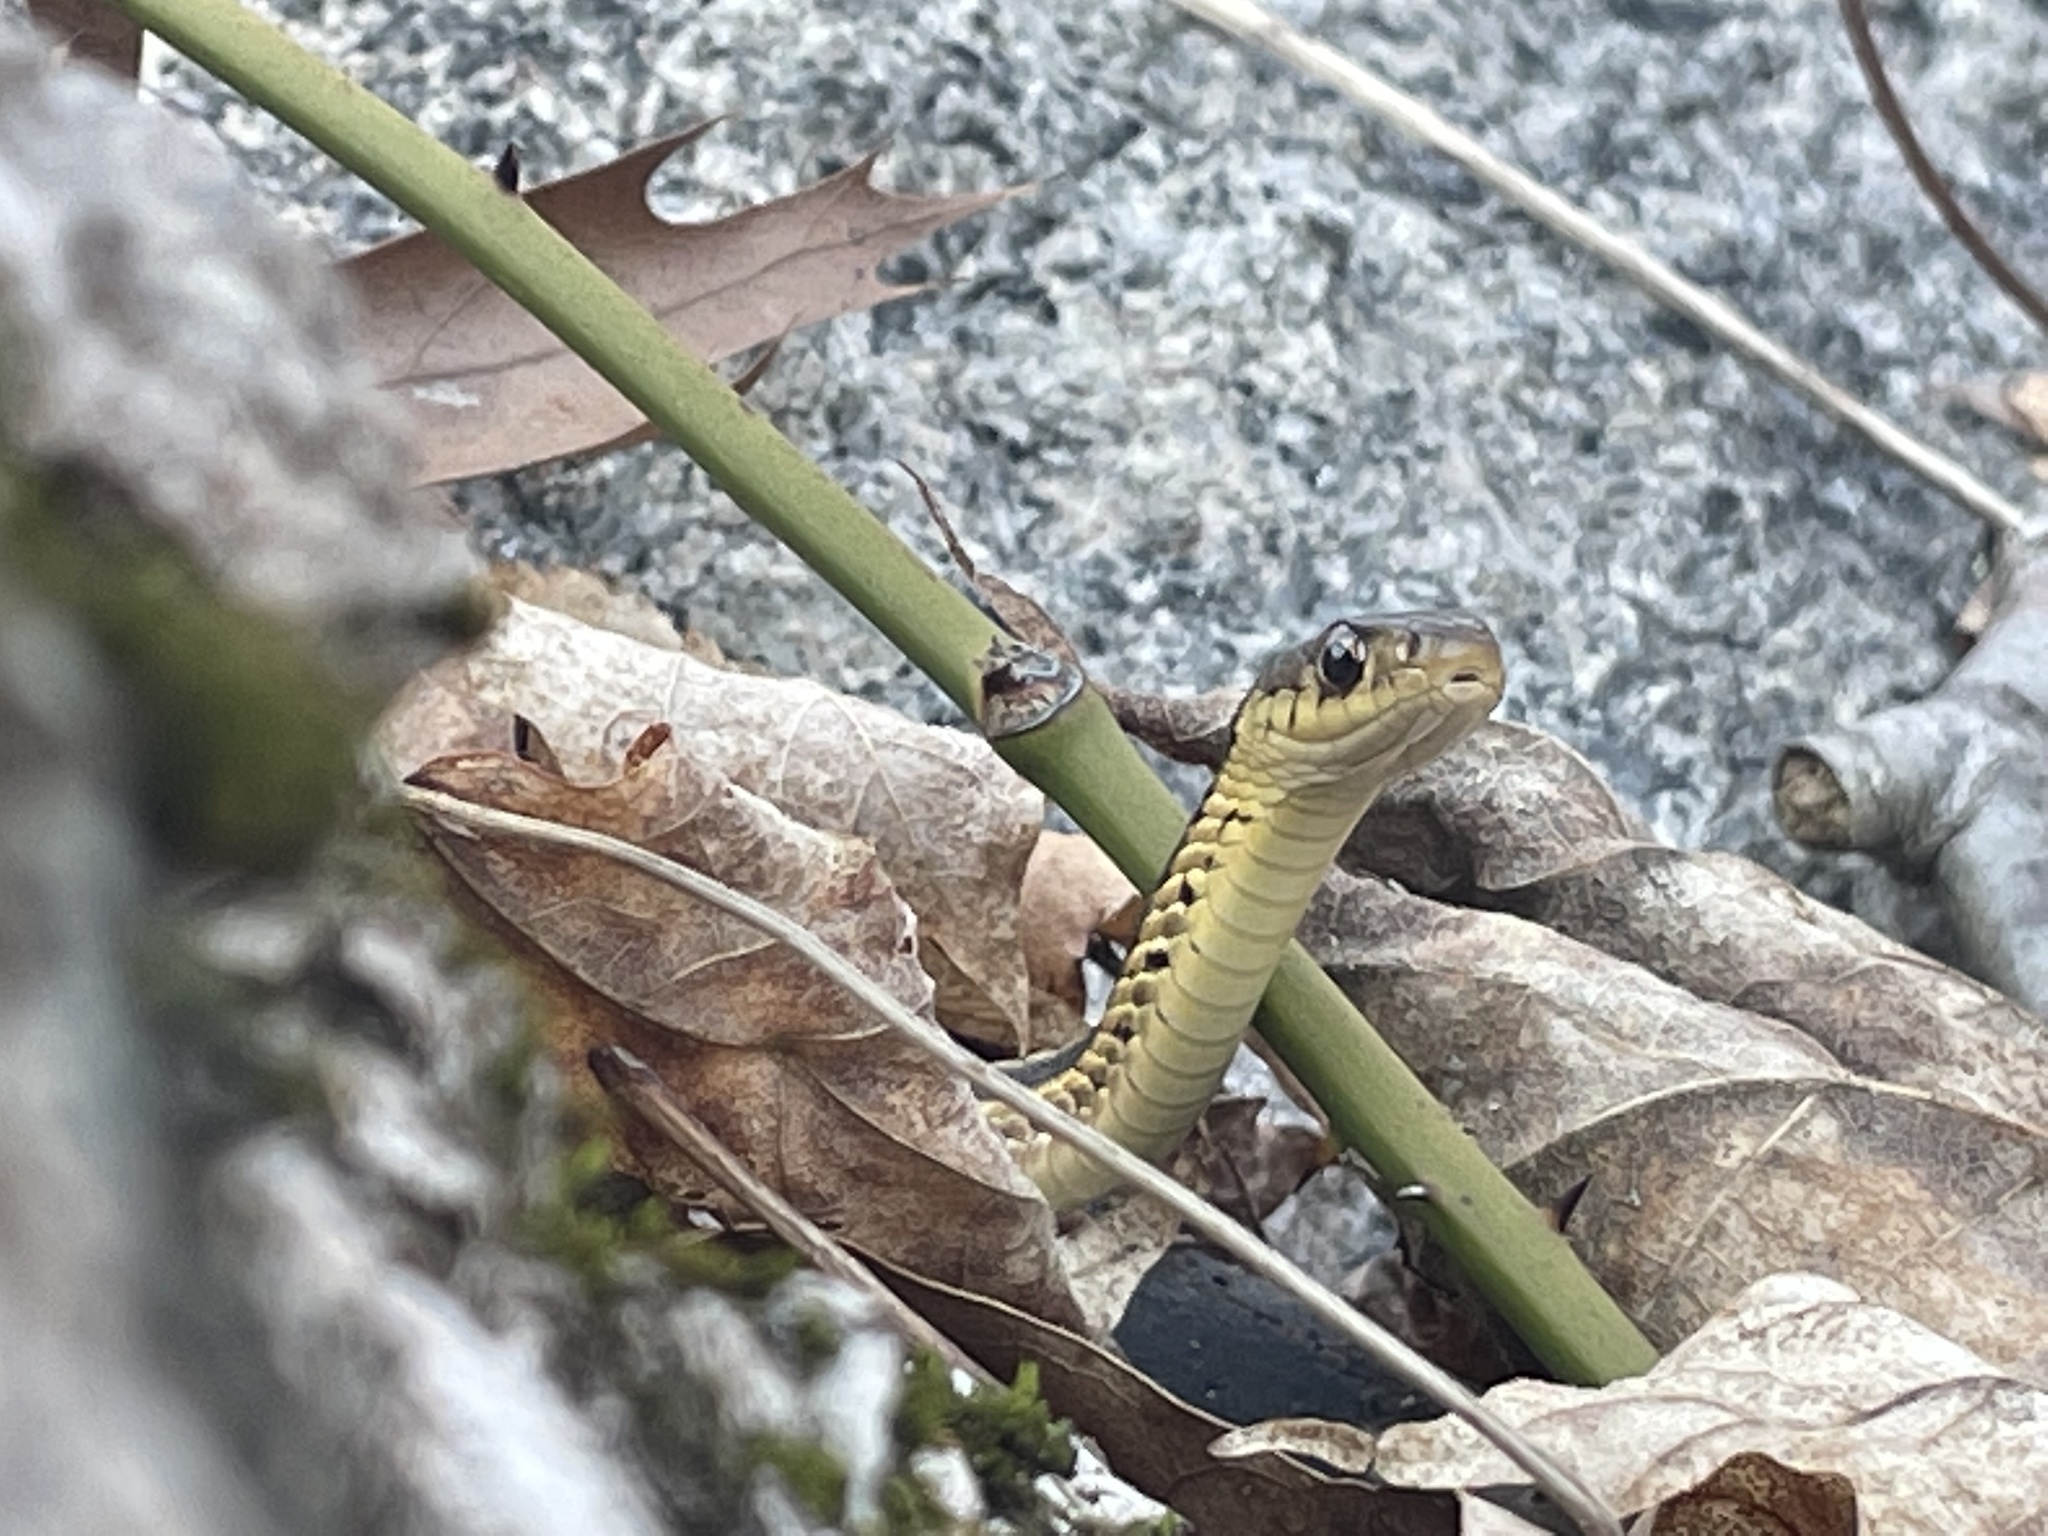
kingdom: Animalia
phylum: Chordata
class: Squamata
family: Colubridae
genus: Thamnophis
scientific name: Thamnophis sirtalis
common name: Common garter snake
